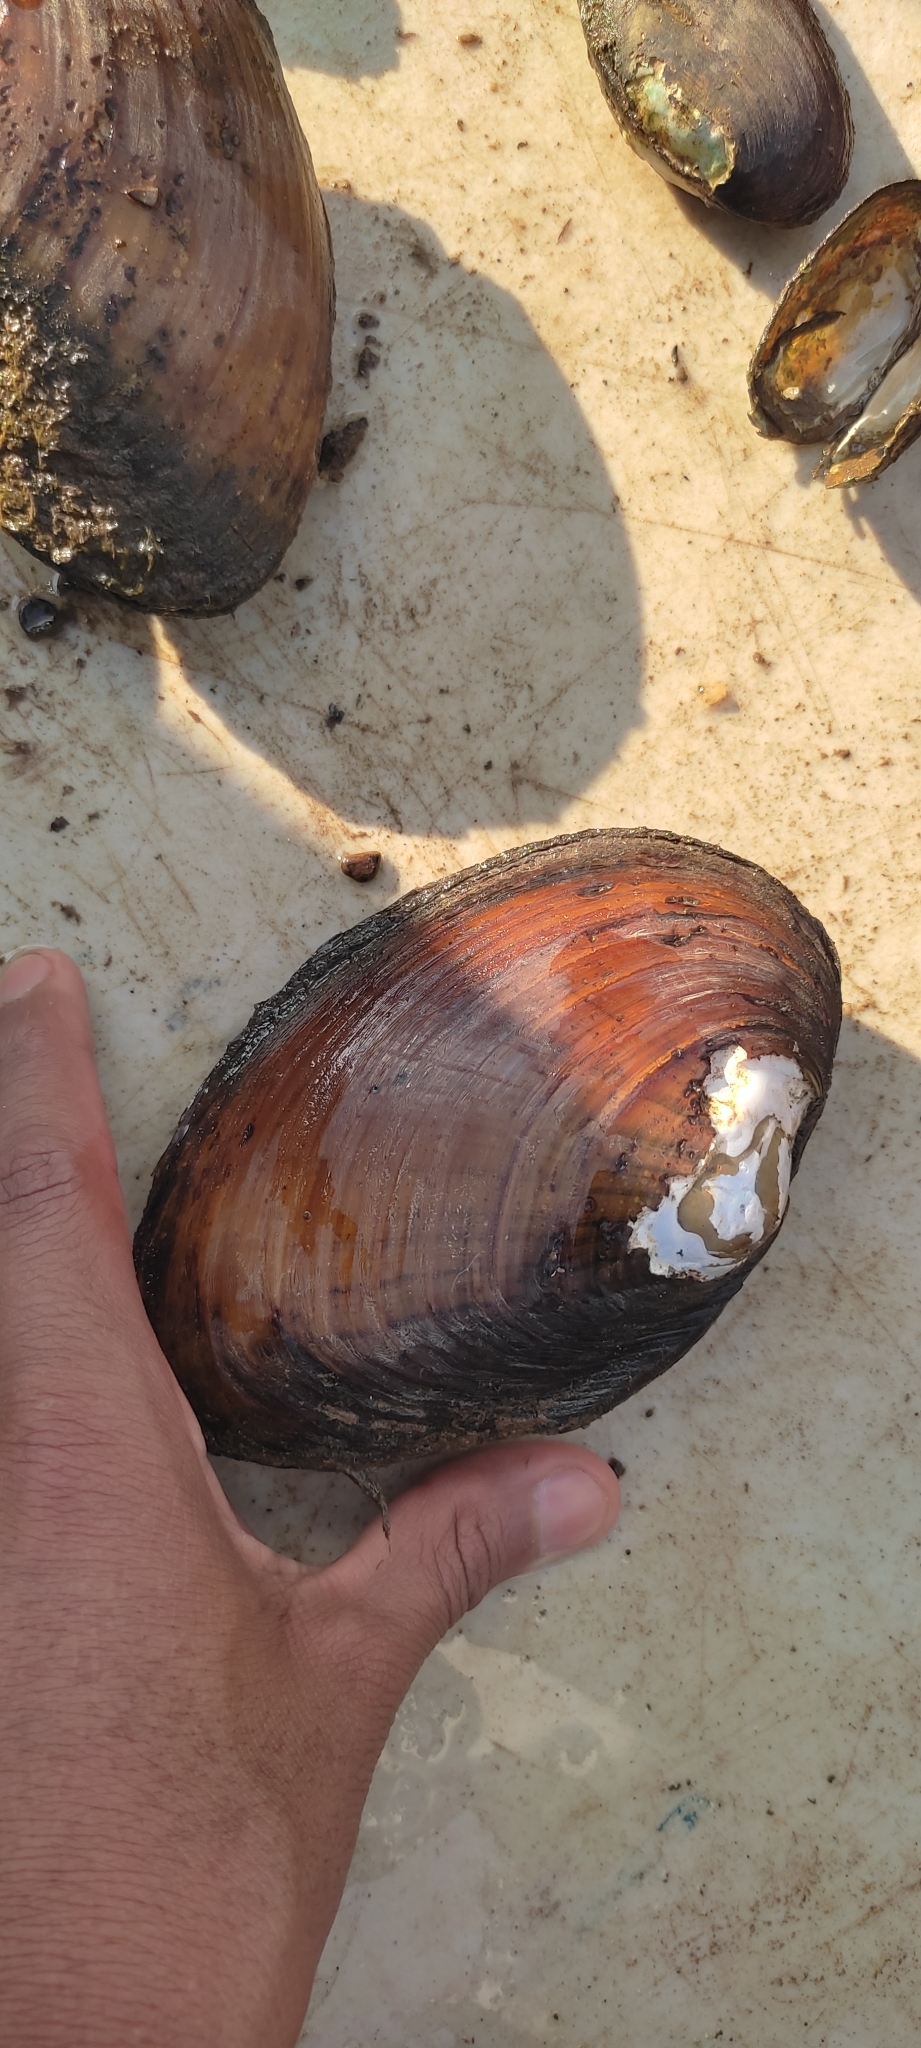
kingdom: Animalia
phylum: Mollusca
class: Bivalvia
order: Unionida
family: Unionidae
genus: Ortmanniana
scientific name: Ortmanniana ligamentina
